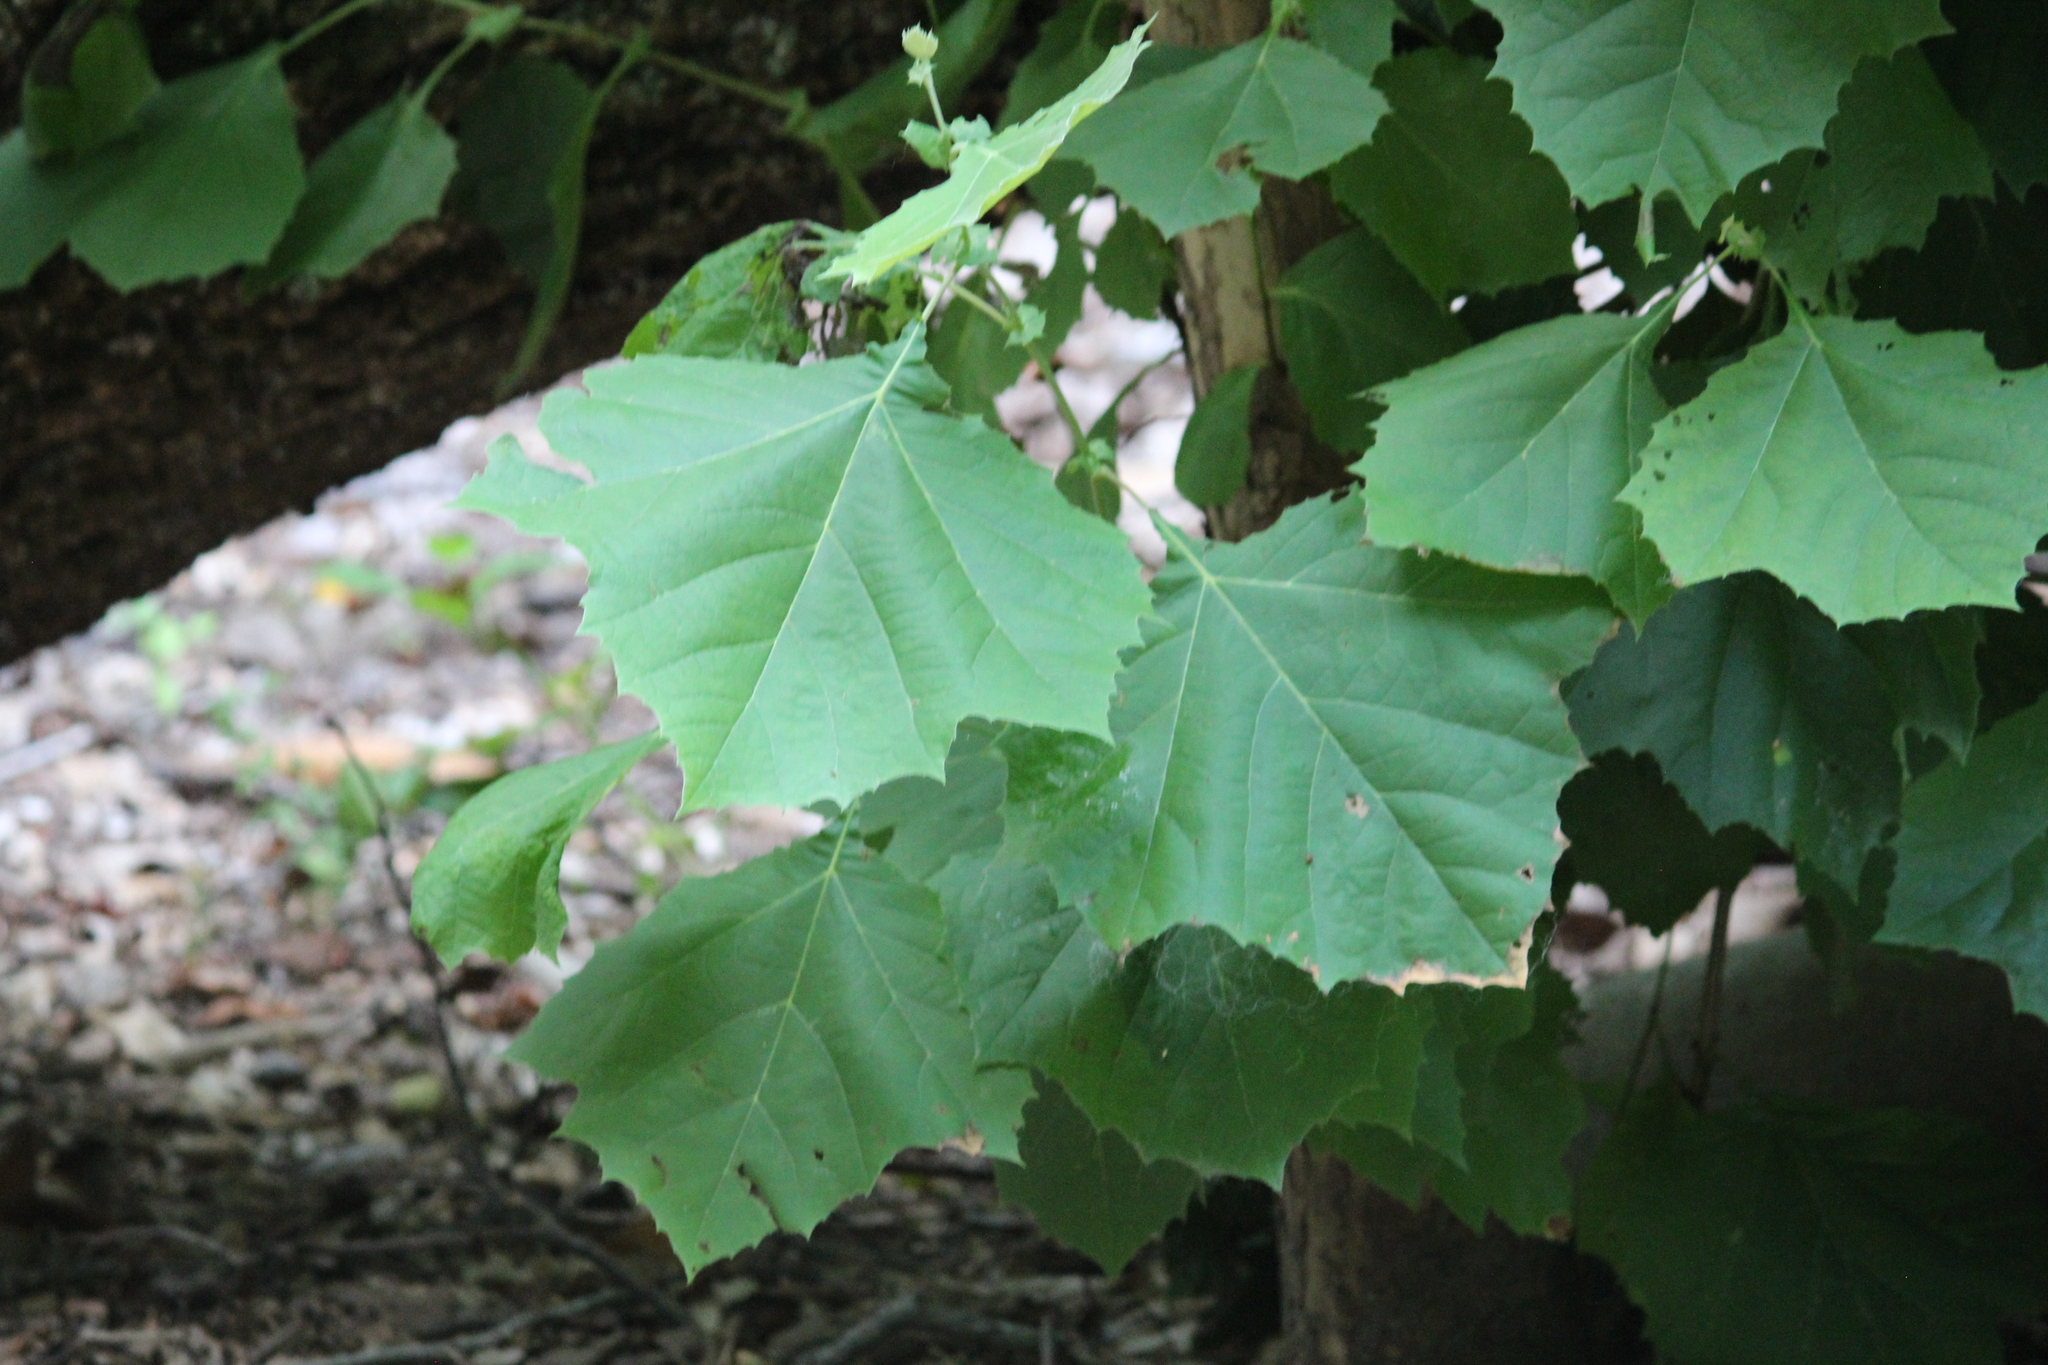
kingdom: Plantae
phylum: Tracheophyta
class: Magnoliopsida
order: Proteales
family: Platanaceae
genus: Platanus
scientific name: Platanus occidentalis
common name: American sycamore
